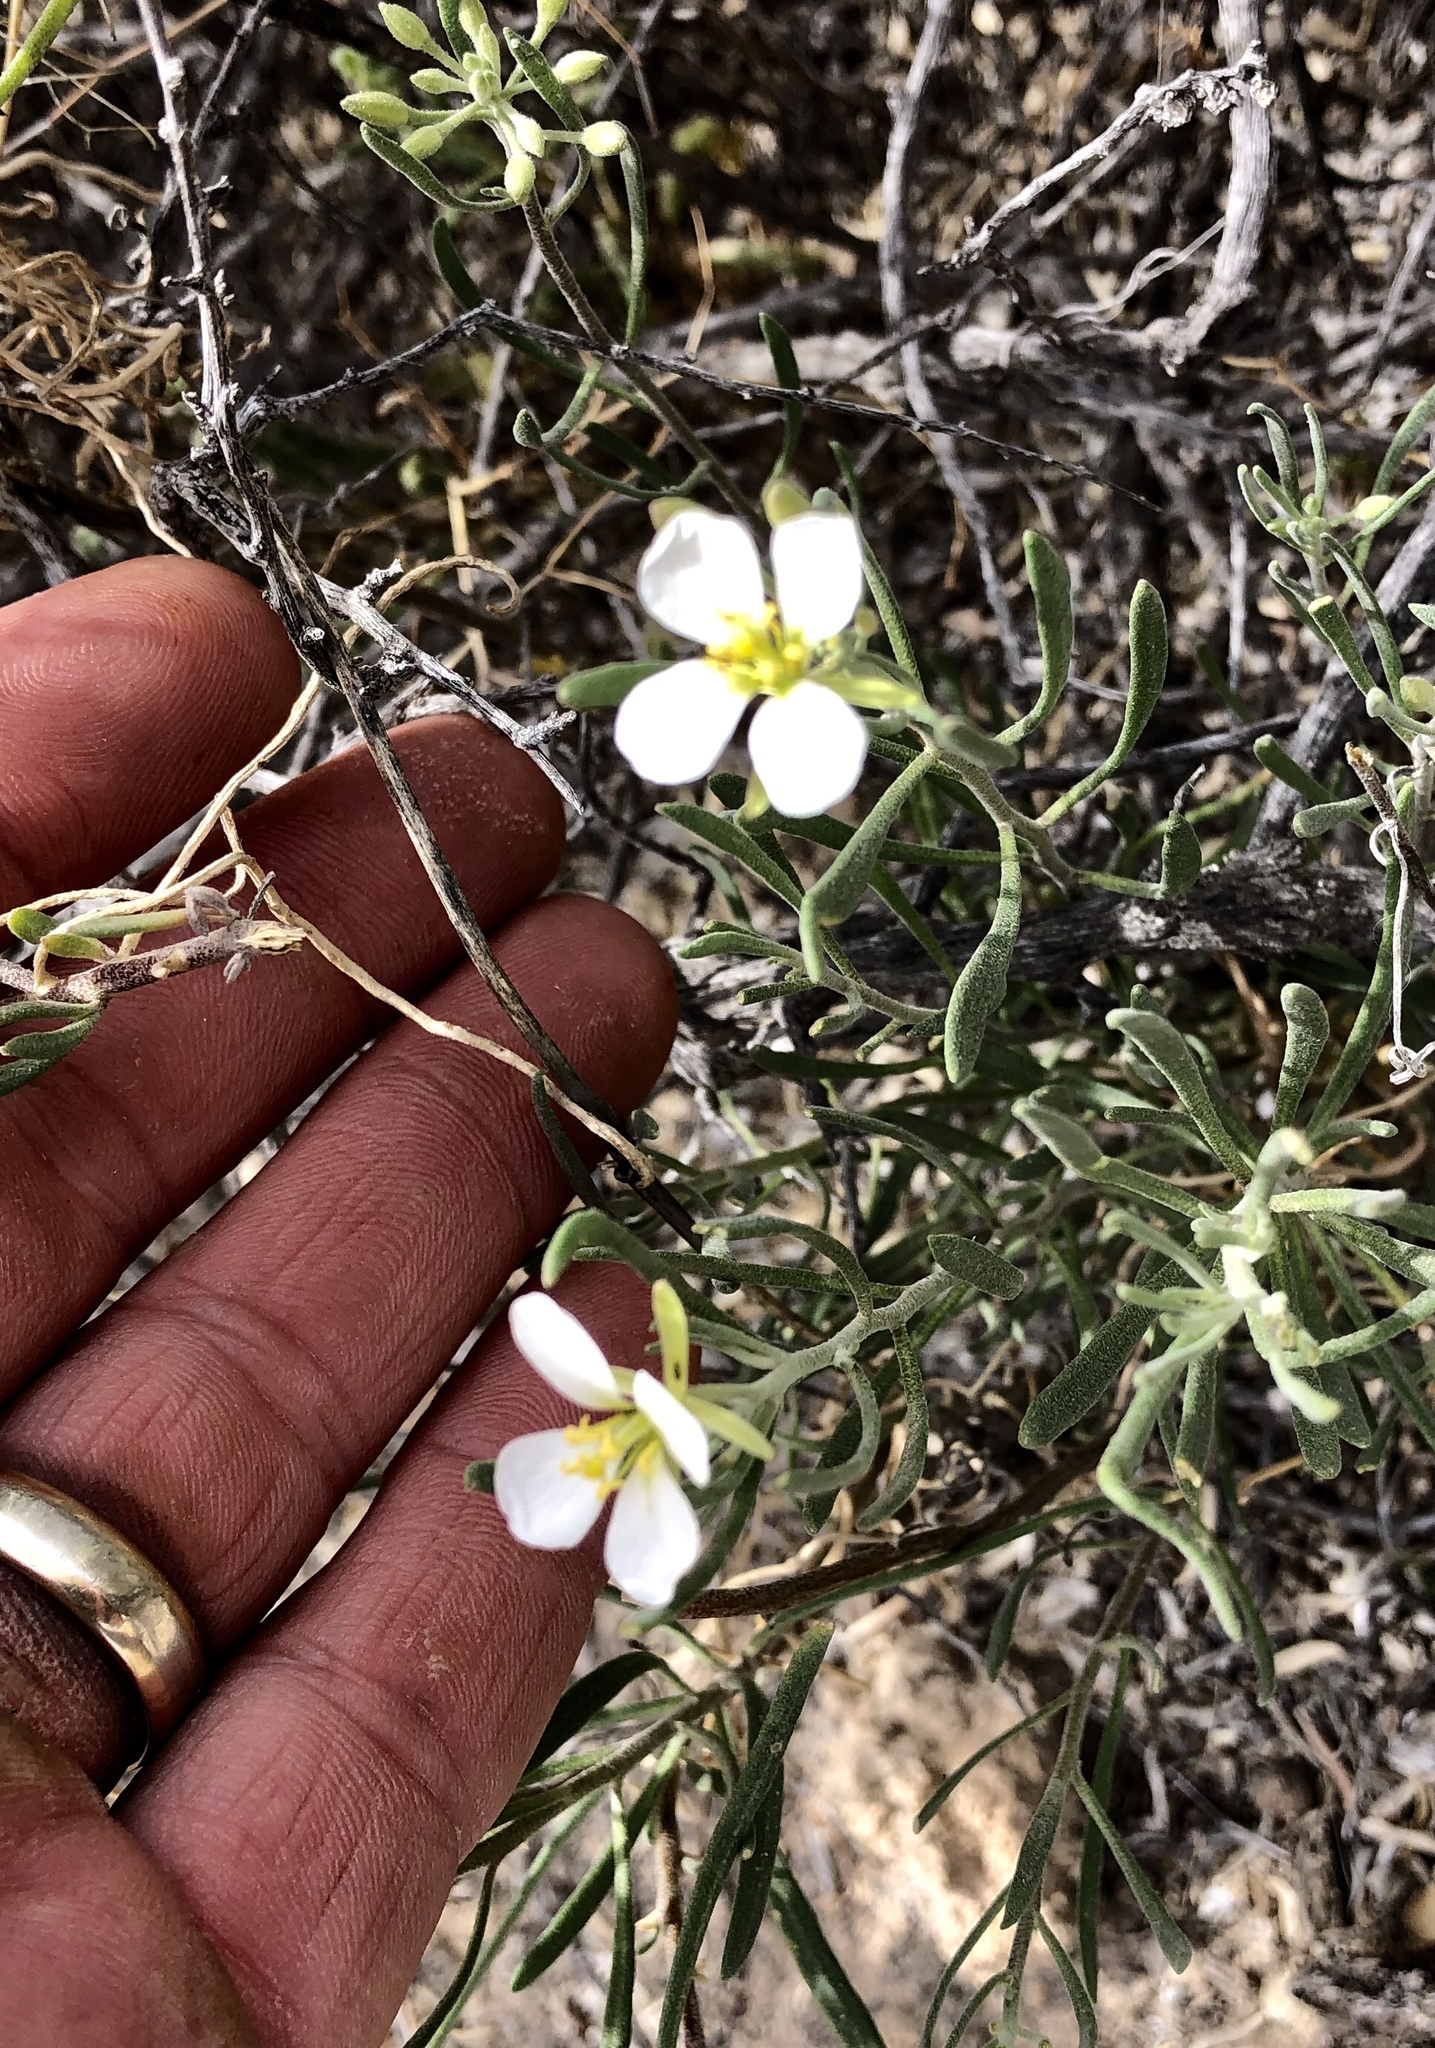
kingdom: Plantae
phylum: Tracheophyta
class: Magnoliopsida
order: Brassicales
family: Brassicaceae
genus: Nerisyrenia
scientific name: Nerisyrenia linearifolia
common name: White sands fan mustard
